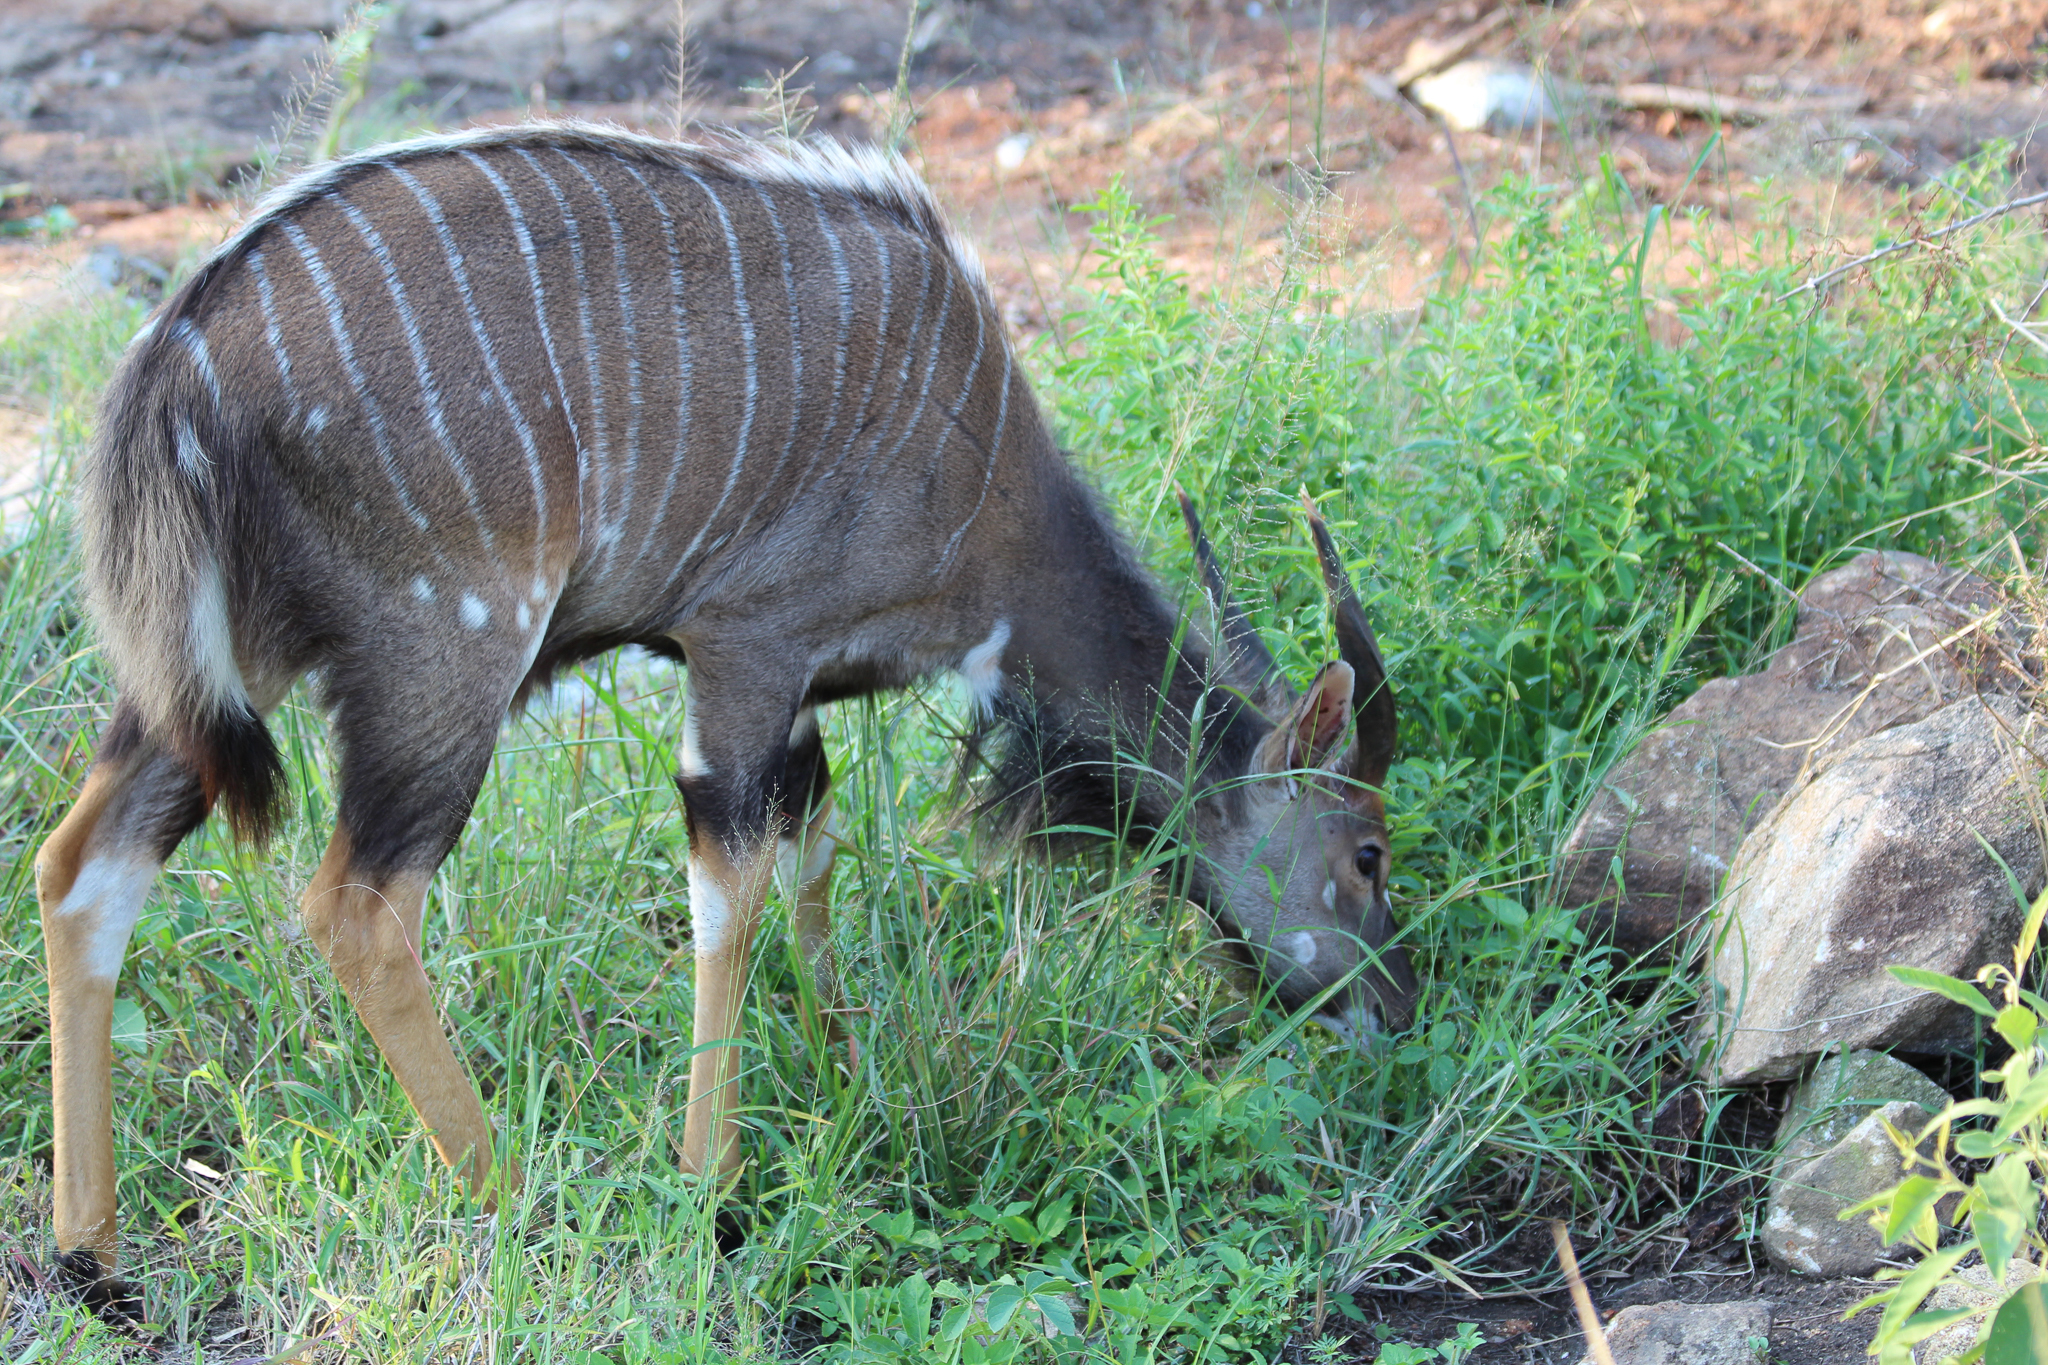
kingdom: Animalia
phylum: Chordata
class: Mammalia
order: Artiodactyla
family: Bovidae
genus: Tragelaphus
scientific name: Tragelaphus angasii
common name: Nyala
